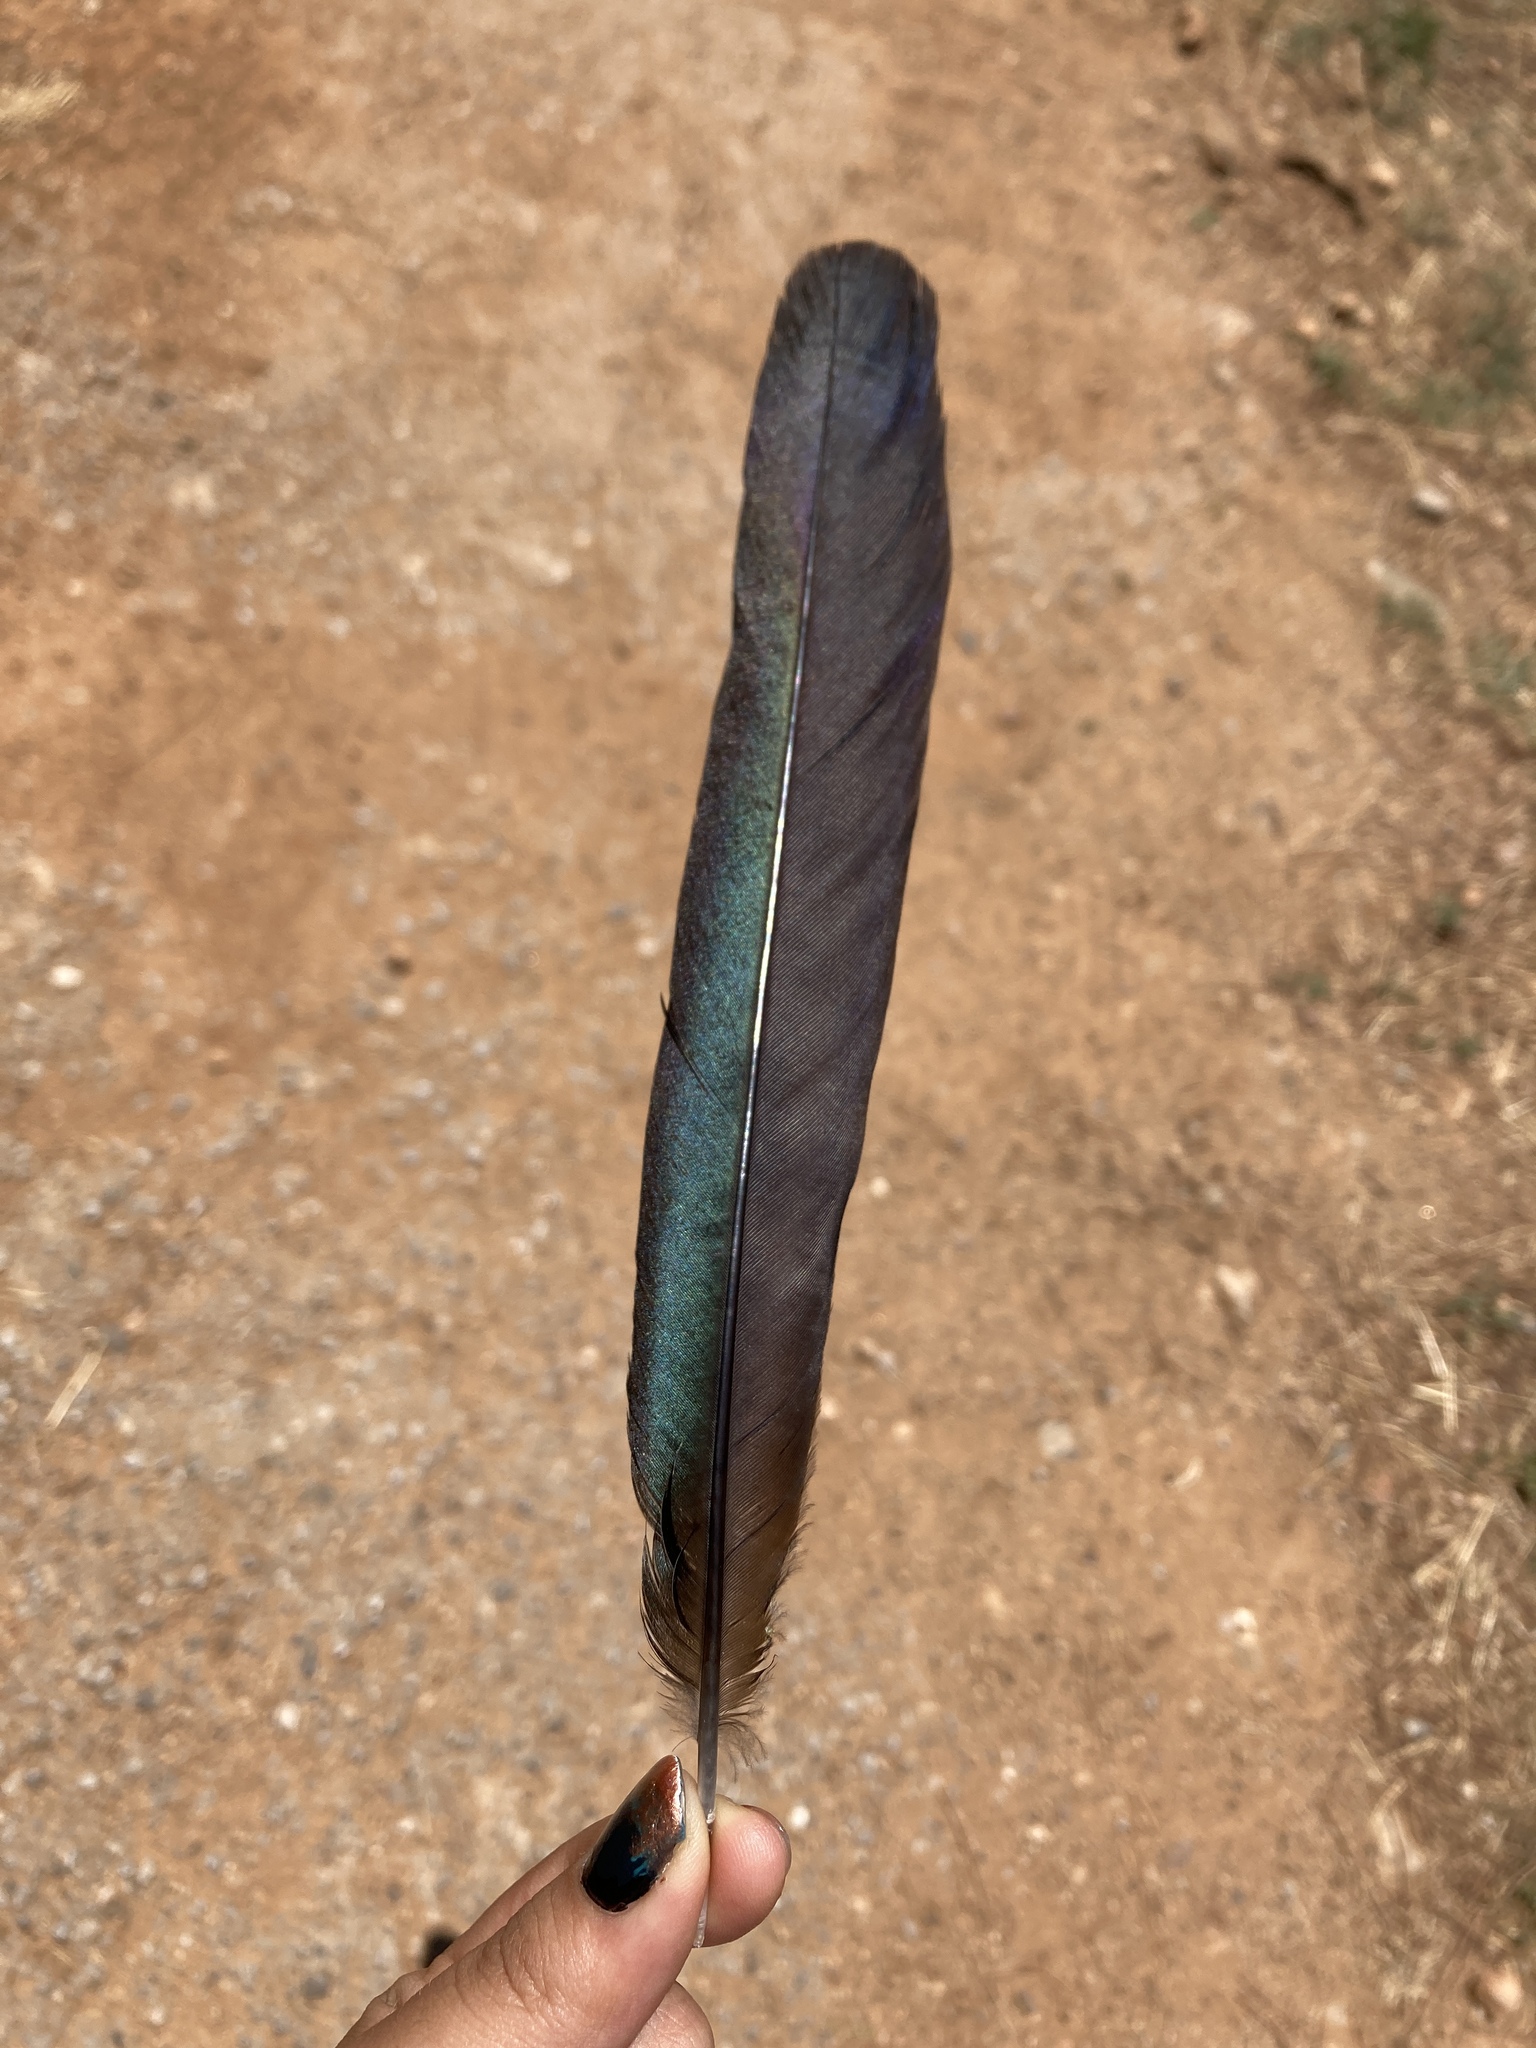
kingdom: Animalia
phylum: Chordata
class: Aves
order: Passeriformes
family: Corvidae
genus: Pica
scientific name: Pica pica
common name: Eurasian magpie
